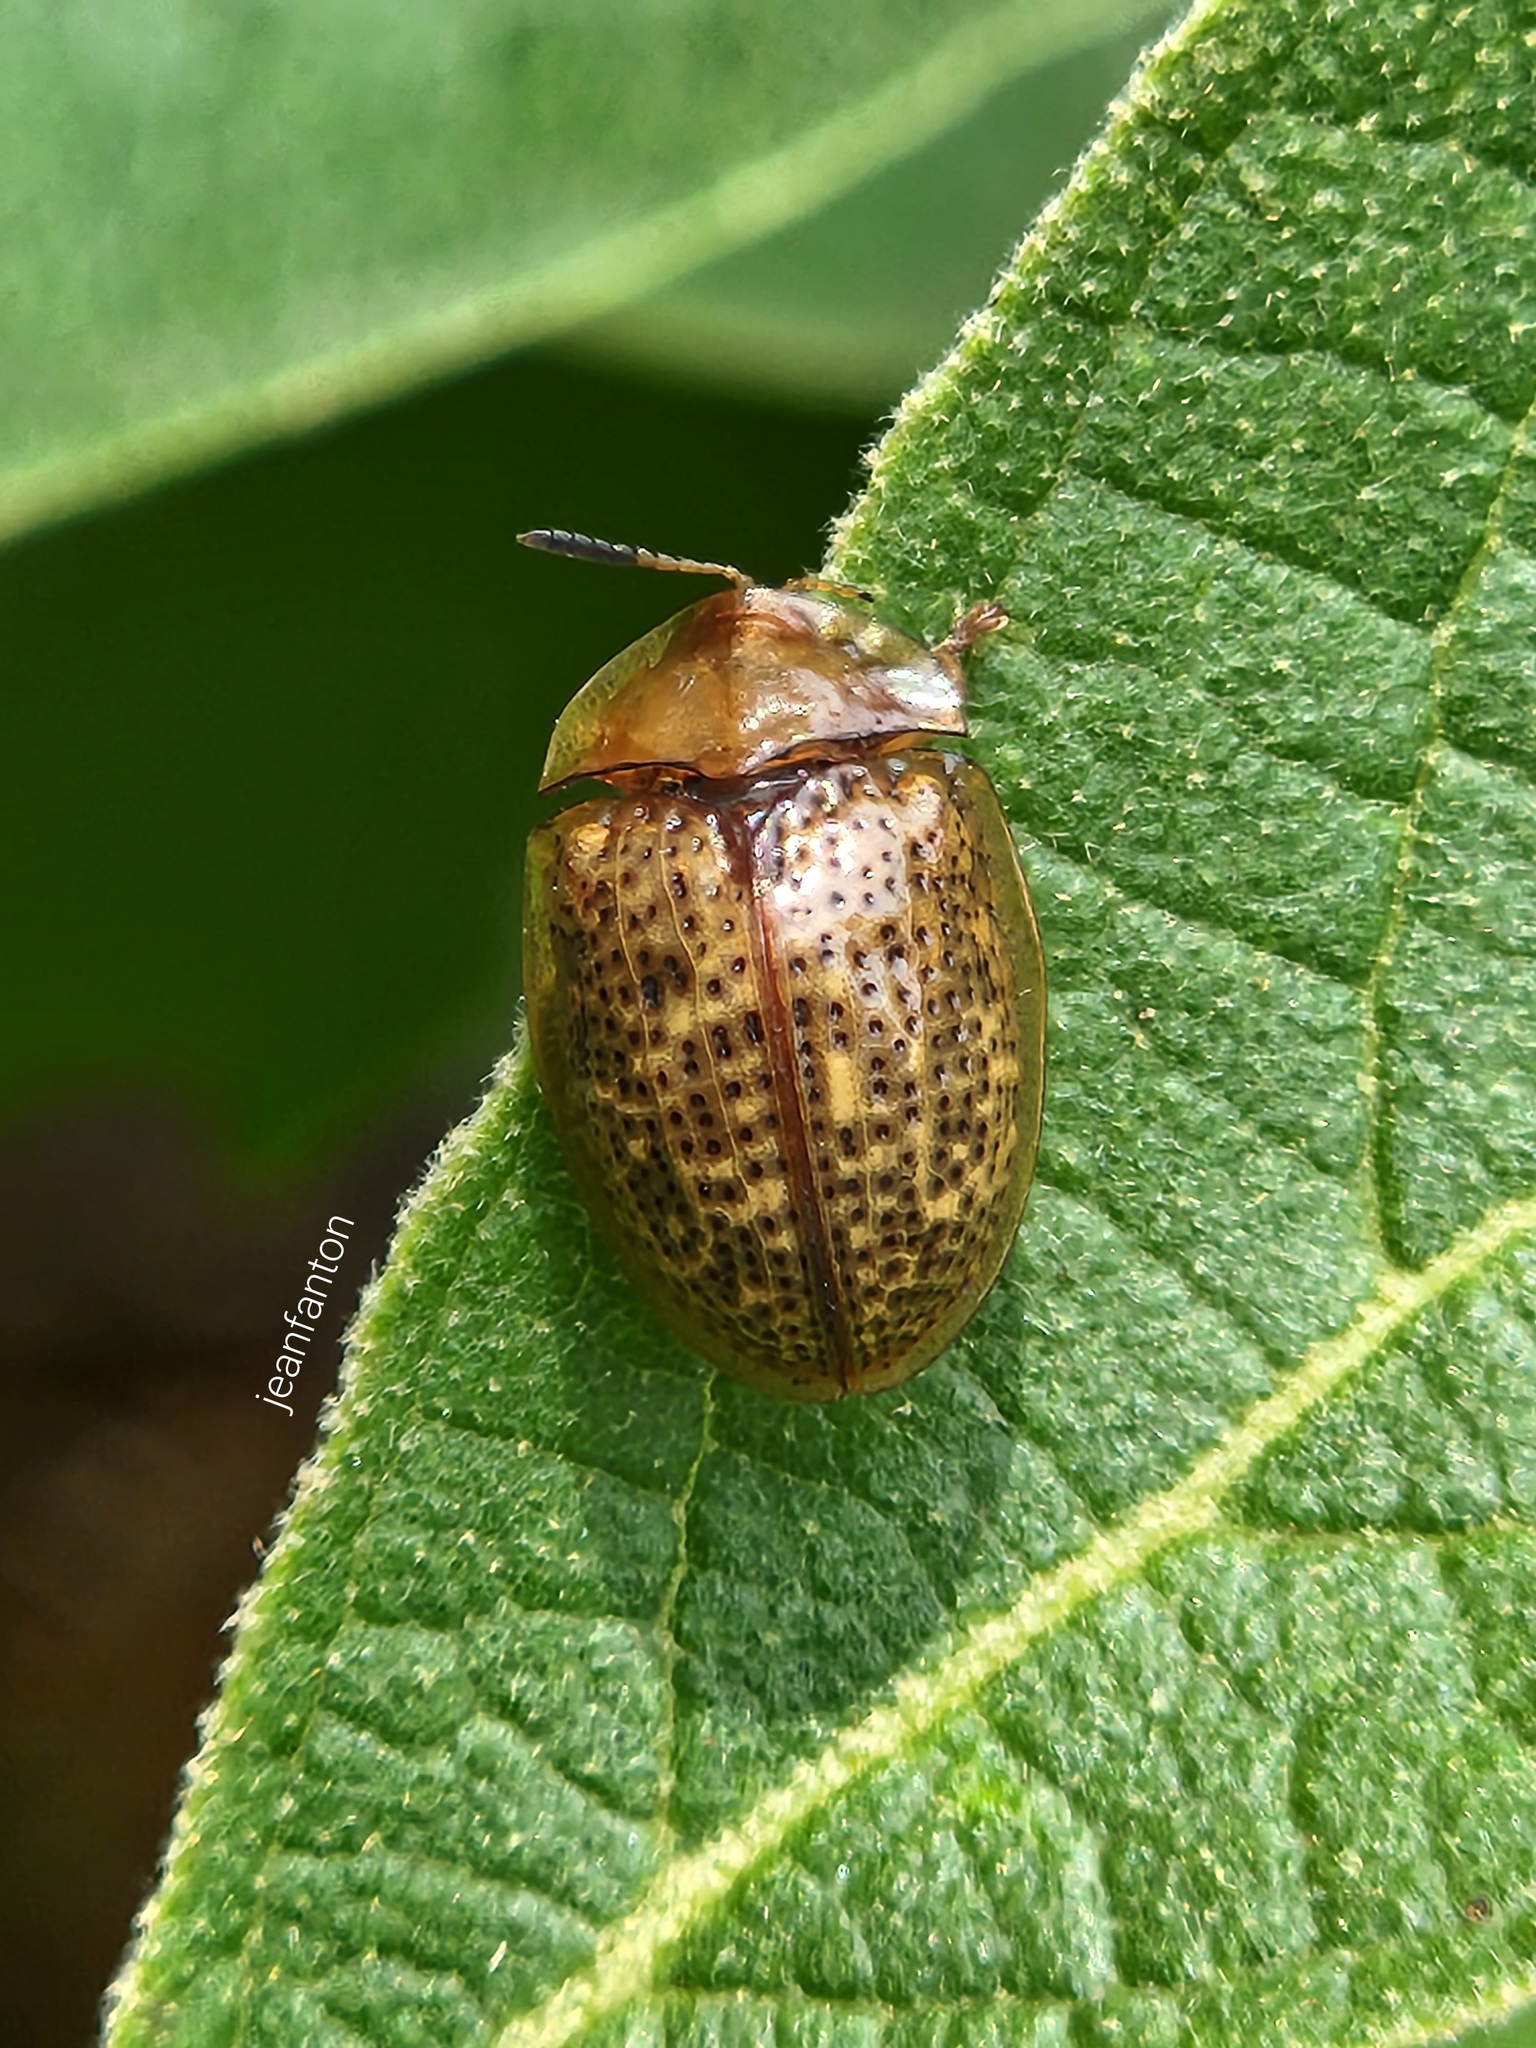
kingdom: Animalia
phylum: Arthropoda
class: Insecta
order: Coleoptera
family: Chrysomelidae
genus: Cistudinella
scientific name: Cistudinella obducta
